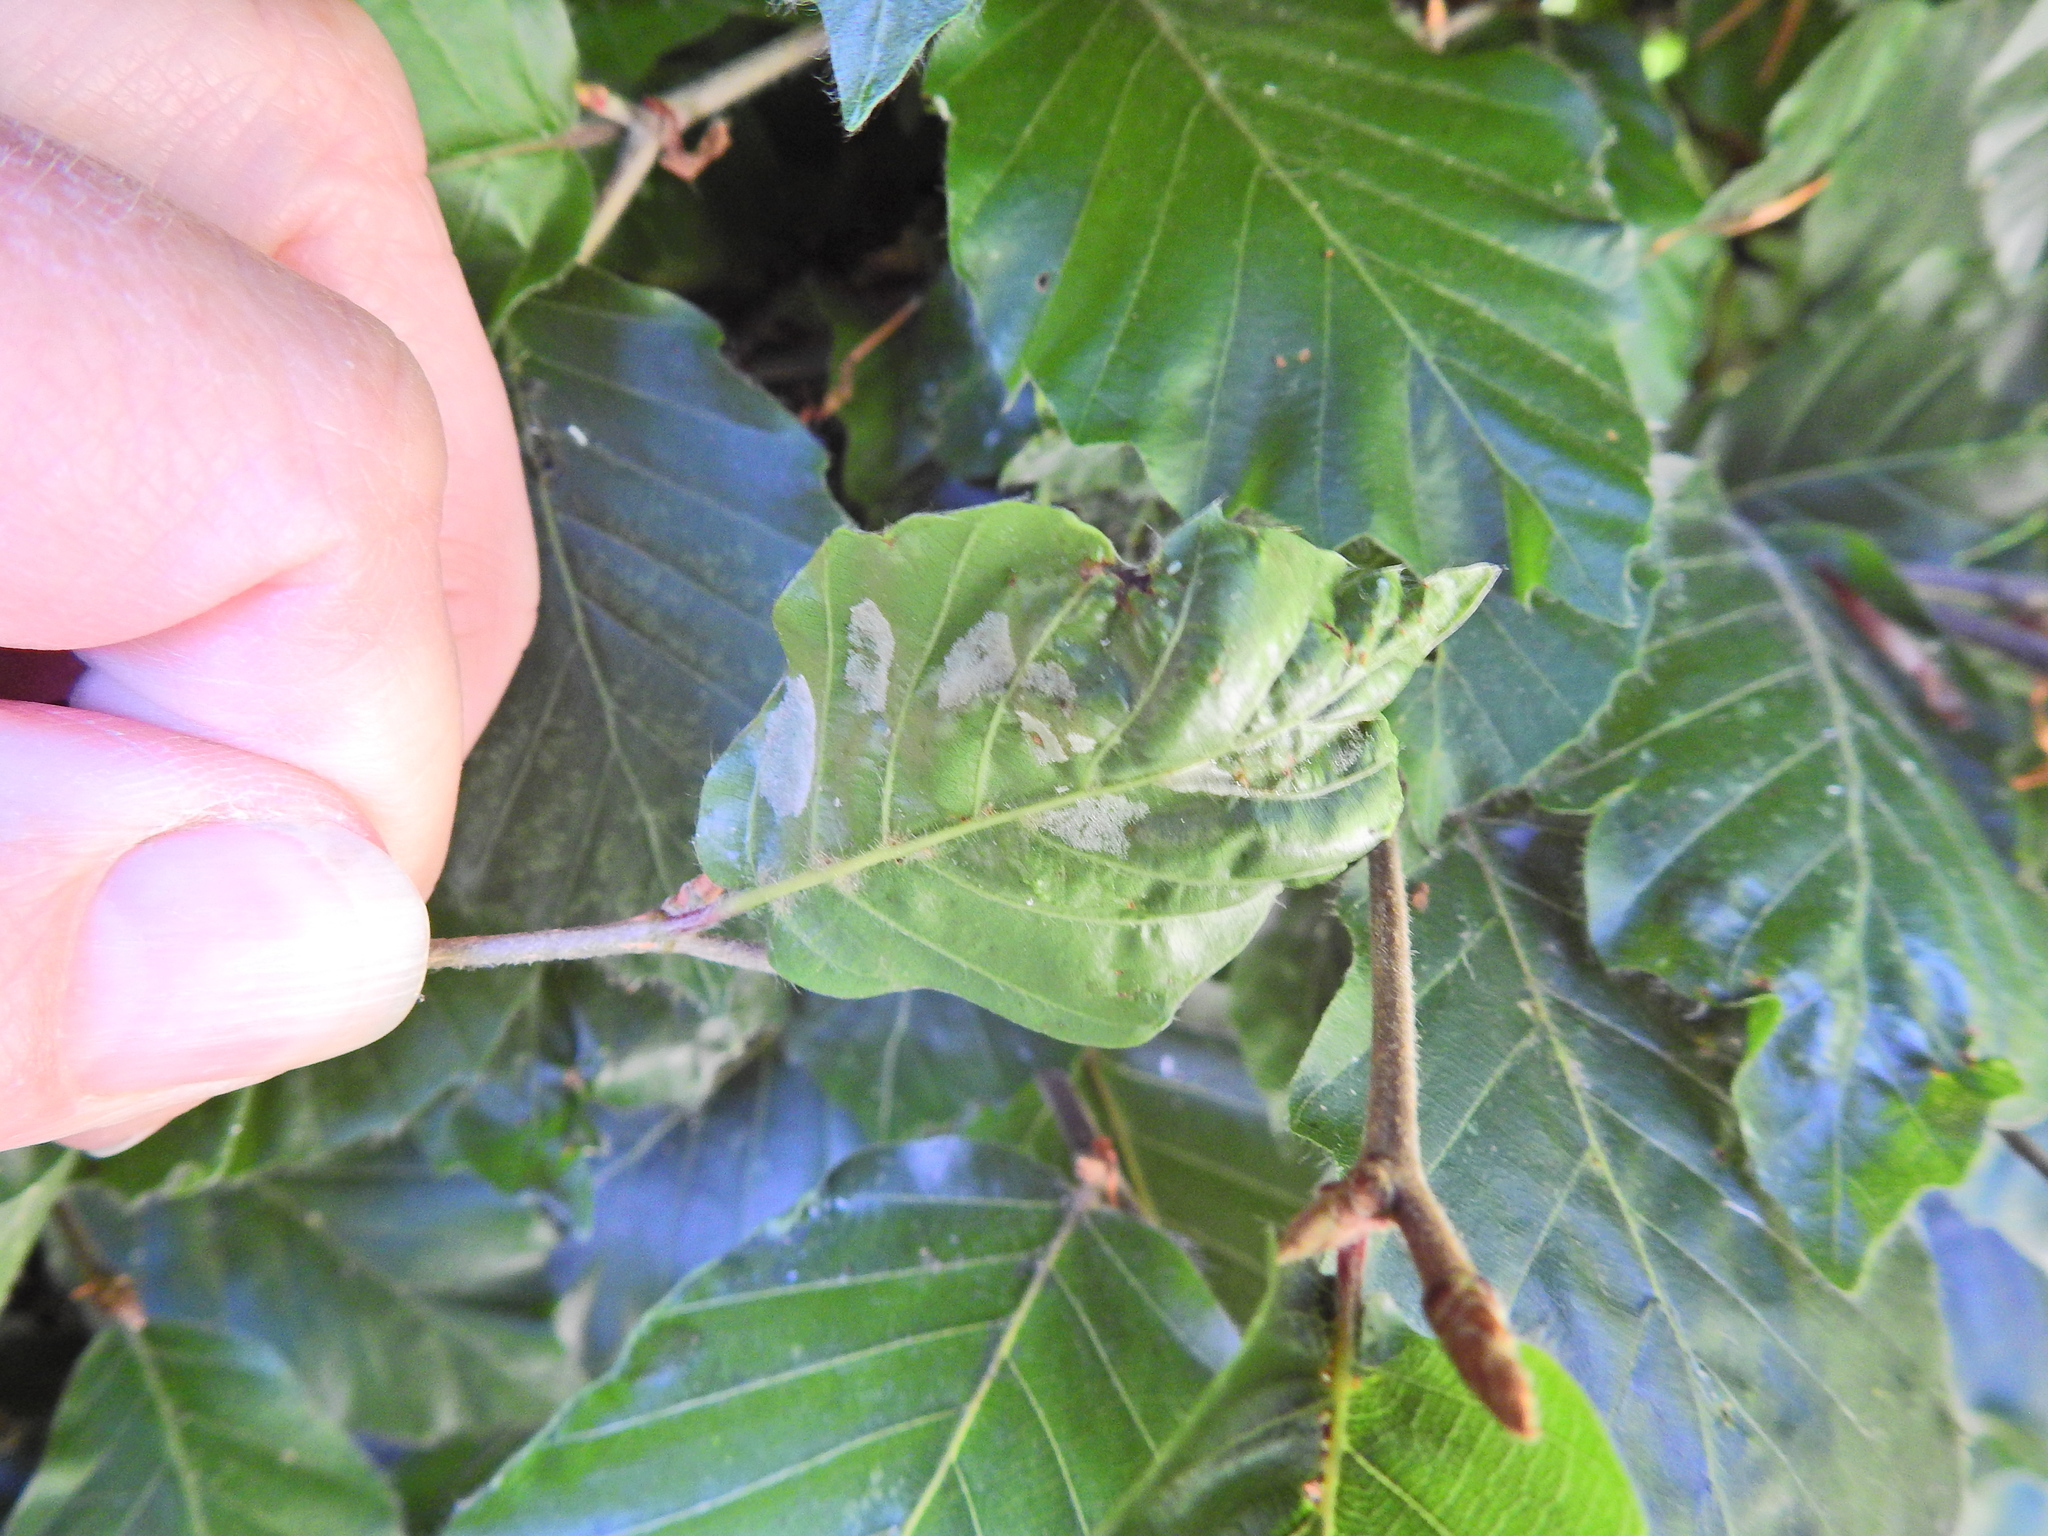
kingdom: Animalia
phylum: Arthropoda
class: Arachnida
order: Trombidiformes
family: Eriophyidae
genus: Aceria
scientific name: Aceria nervisequa
